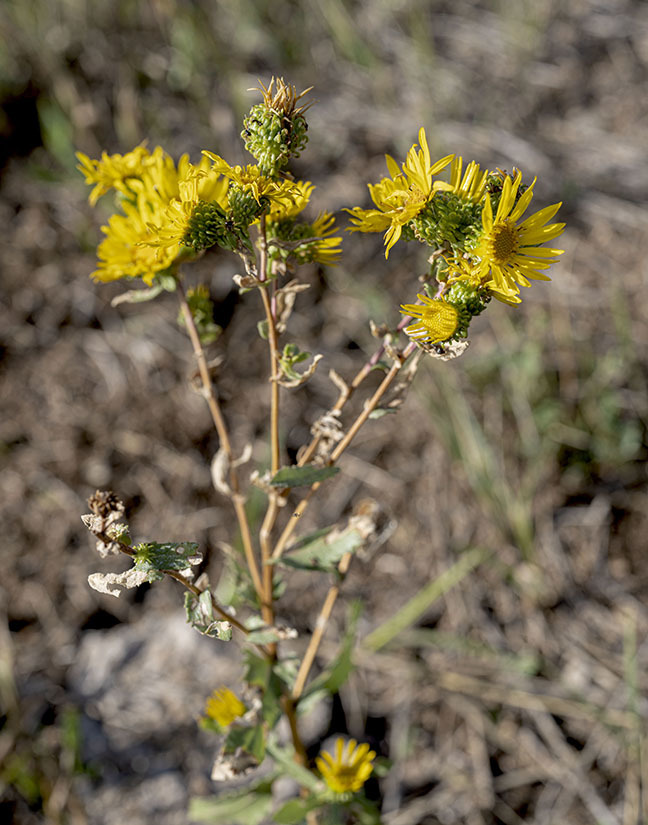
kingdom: Plantae
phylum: Tracheophyta
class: Magnoliopsida
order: Asterales
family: Asteraceae
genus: Grindelia
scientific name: Grindelia squarrosa
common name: Curly-cup gumweed
